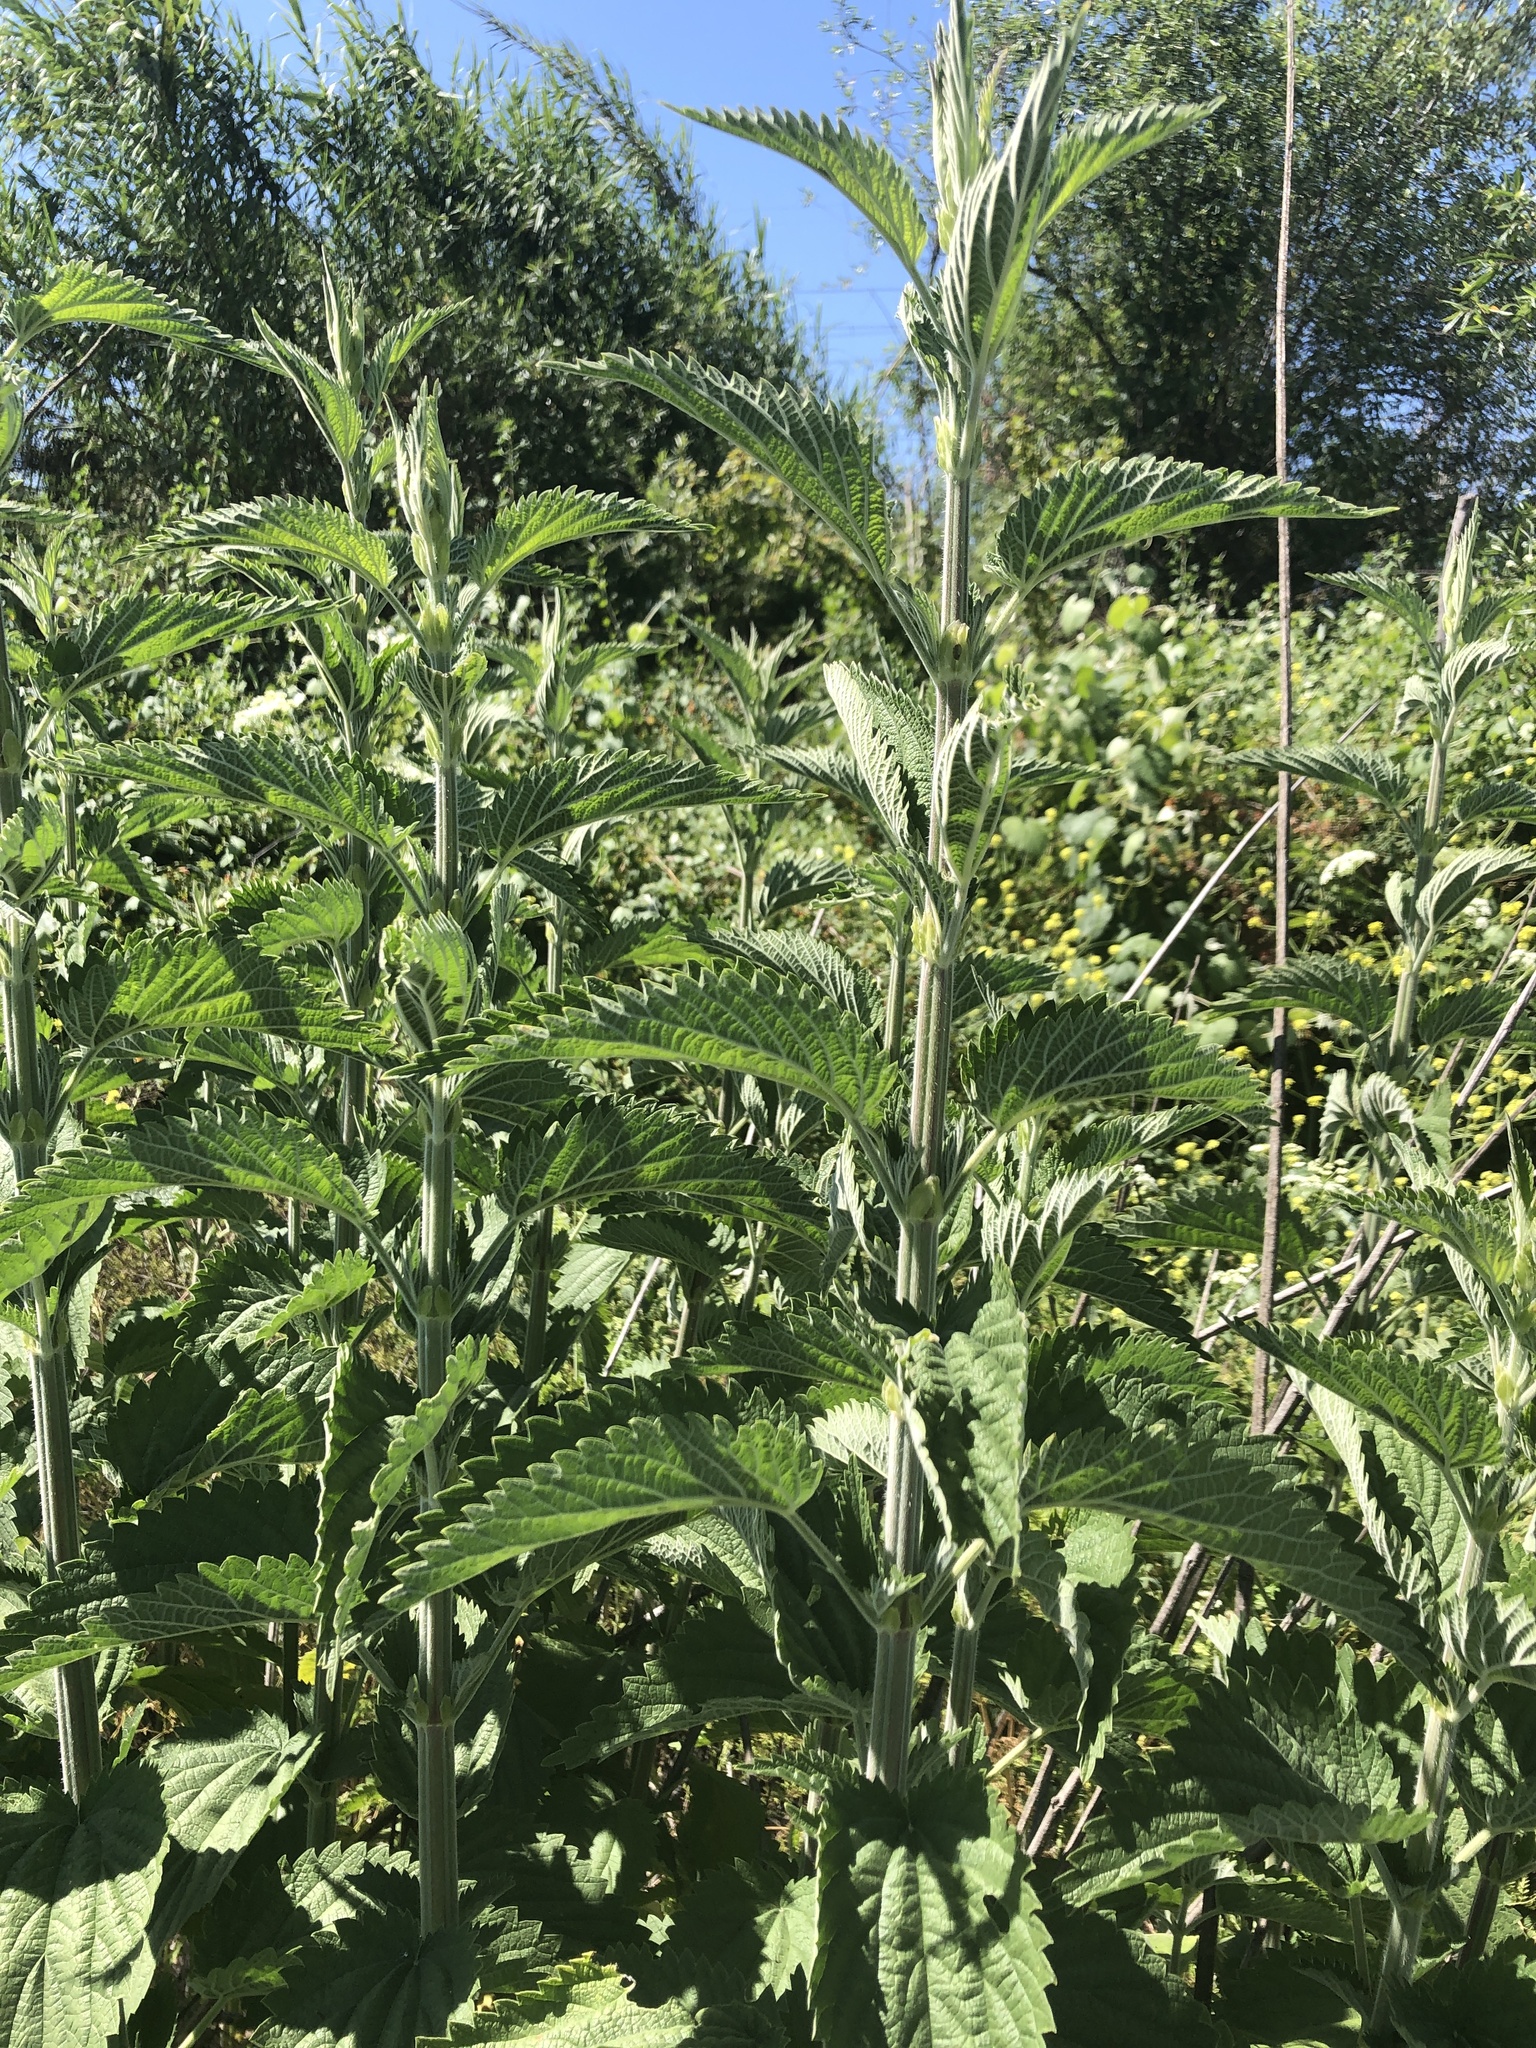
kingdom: Plantae
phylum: Tracheophyta
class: Magnoliopsida
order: Rosales
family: Urticaceae
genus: Urtica
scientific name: Urtica dioica
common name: Common nettle
